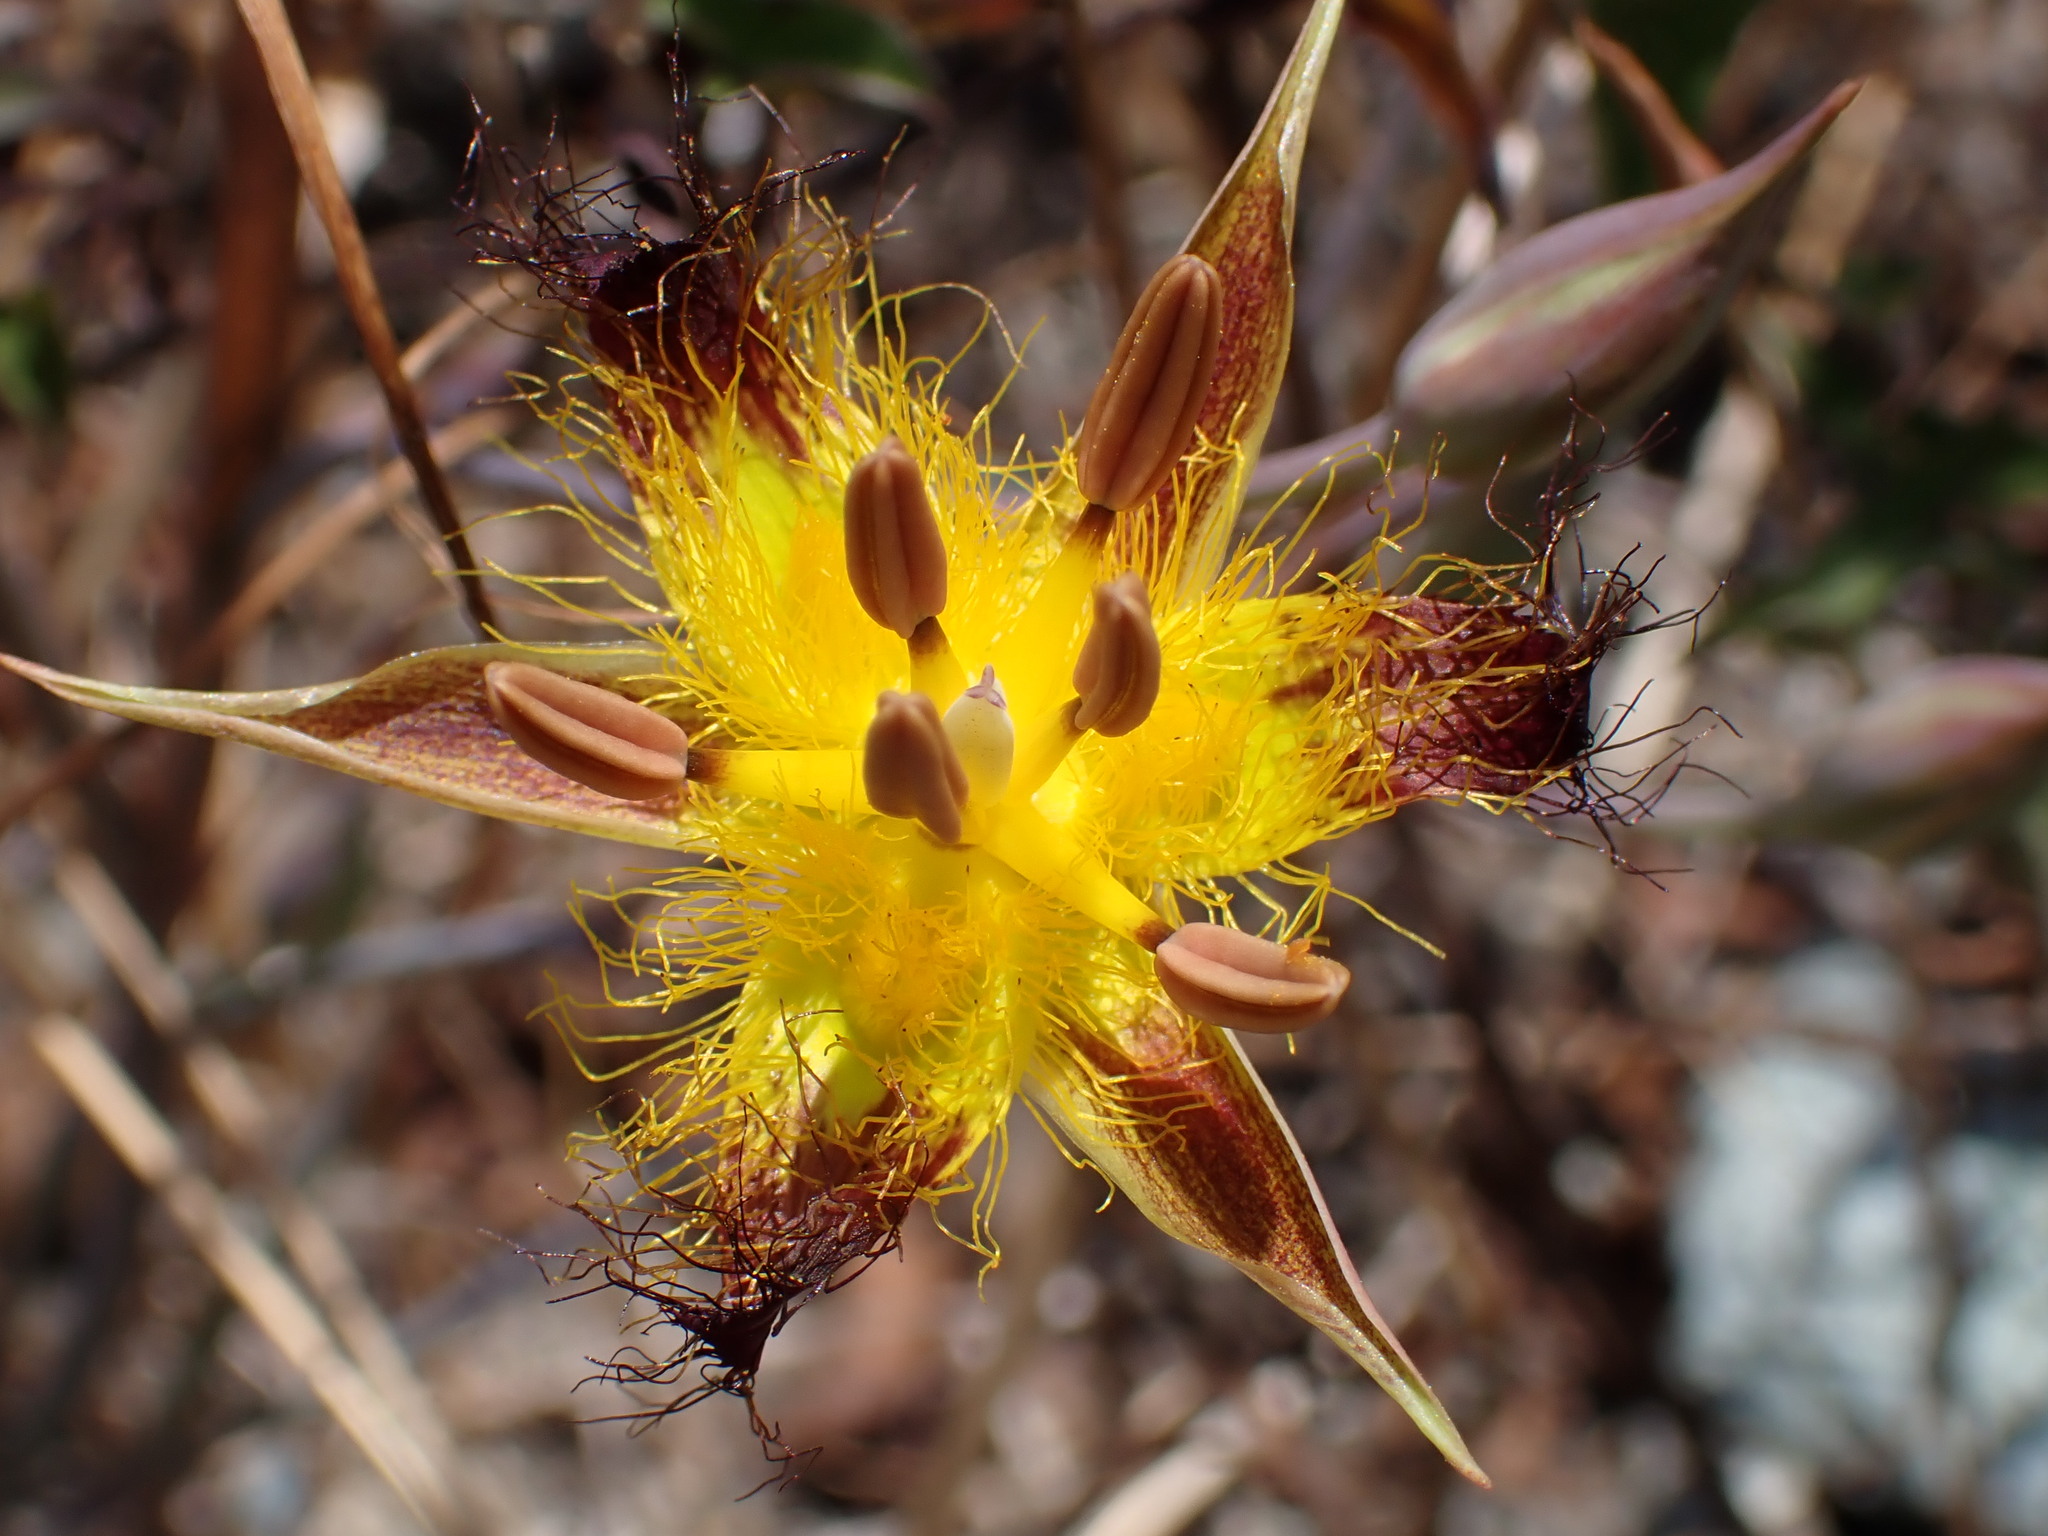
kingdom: Plantae
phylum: Tracheophyta
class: Liliopsida
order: Liliales
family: Liliaceae
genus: Calochortus
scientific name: Calochortus obispoensis
